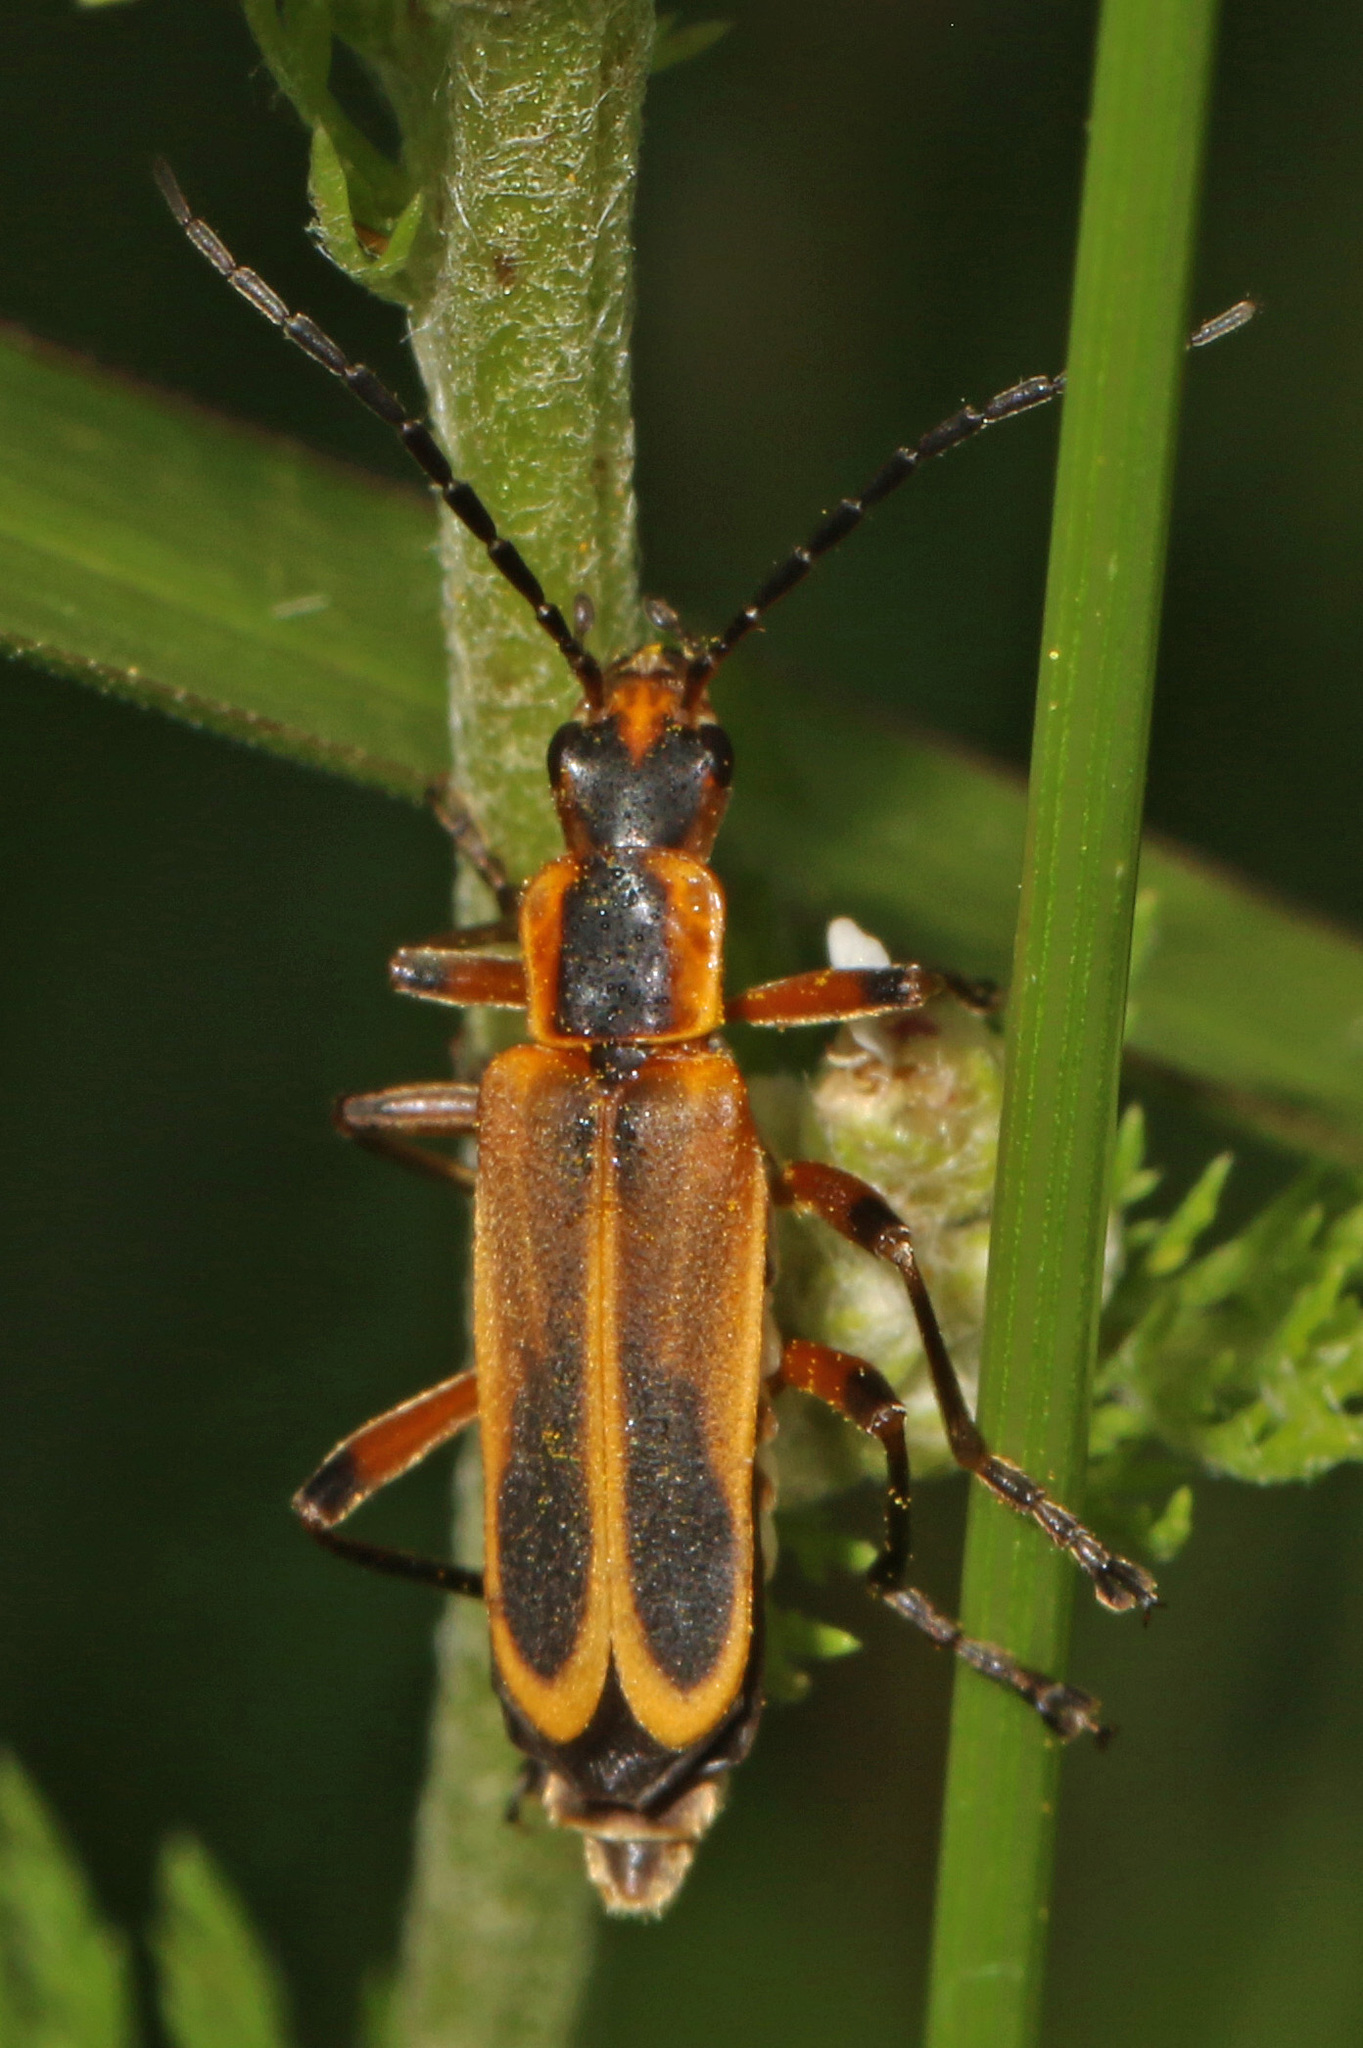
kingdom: Animalia
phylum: Arthropoda
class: Insecta
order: Coleoptera
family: Cantharidae
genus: Chauliognathus
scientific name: Chauliognathus marginatus
